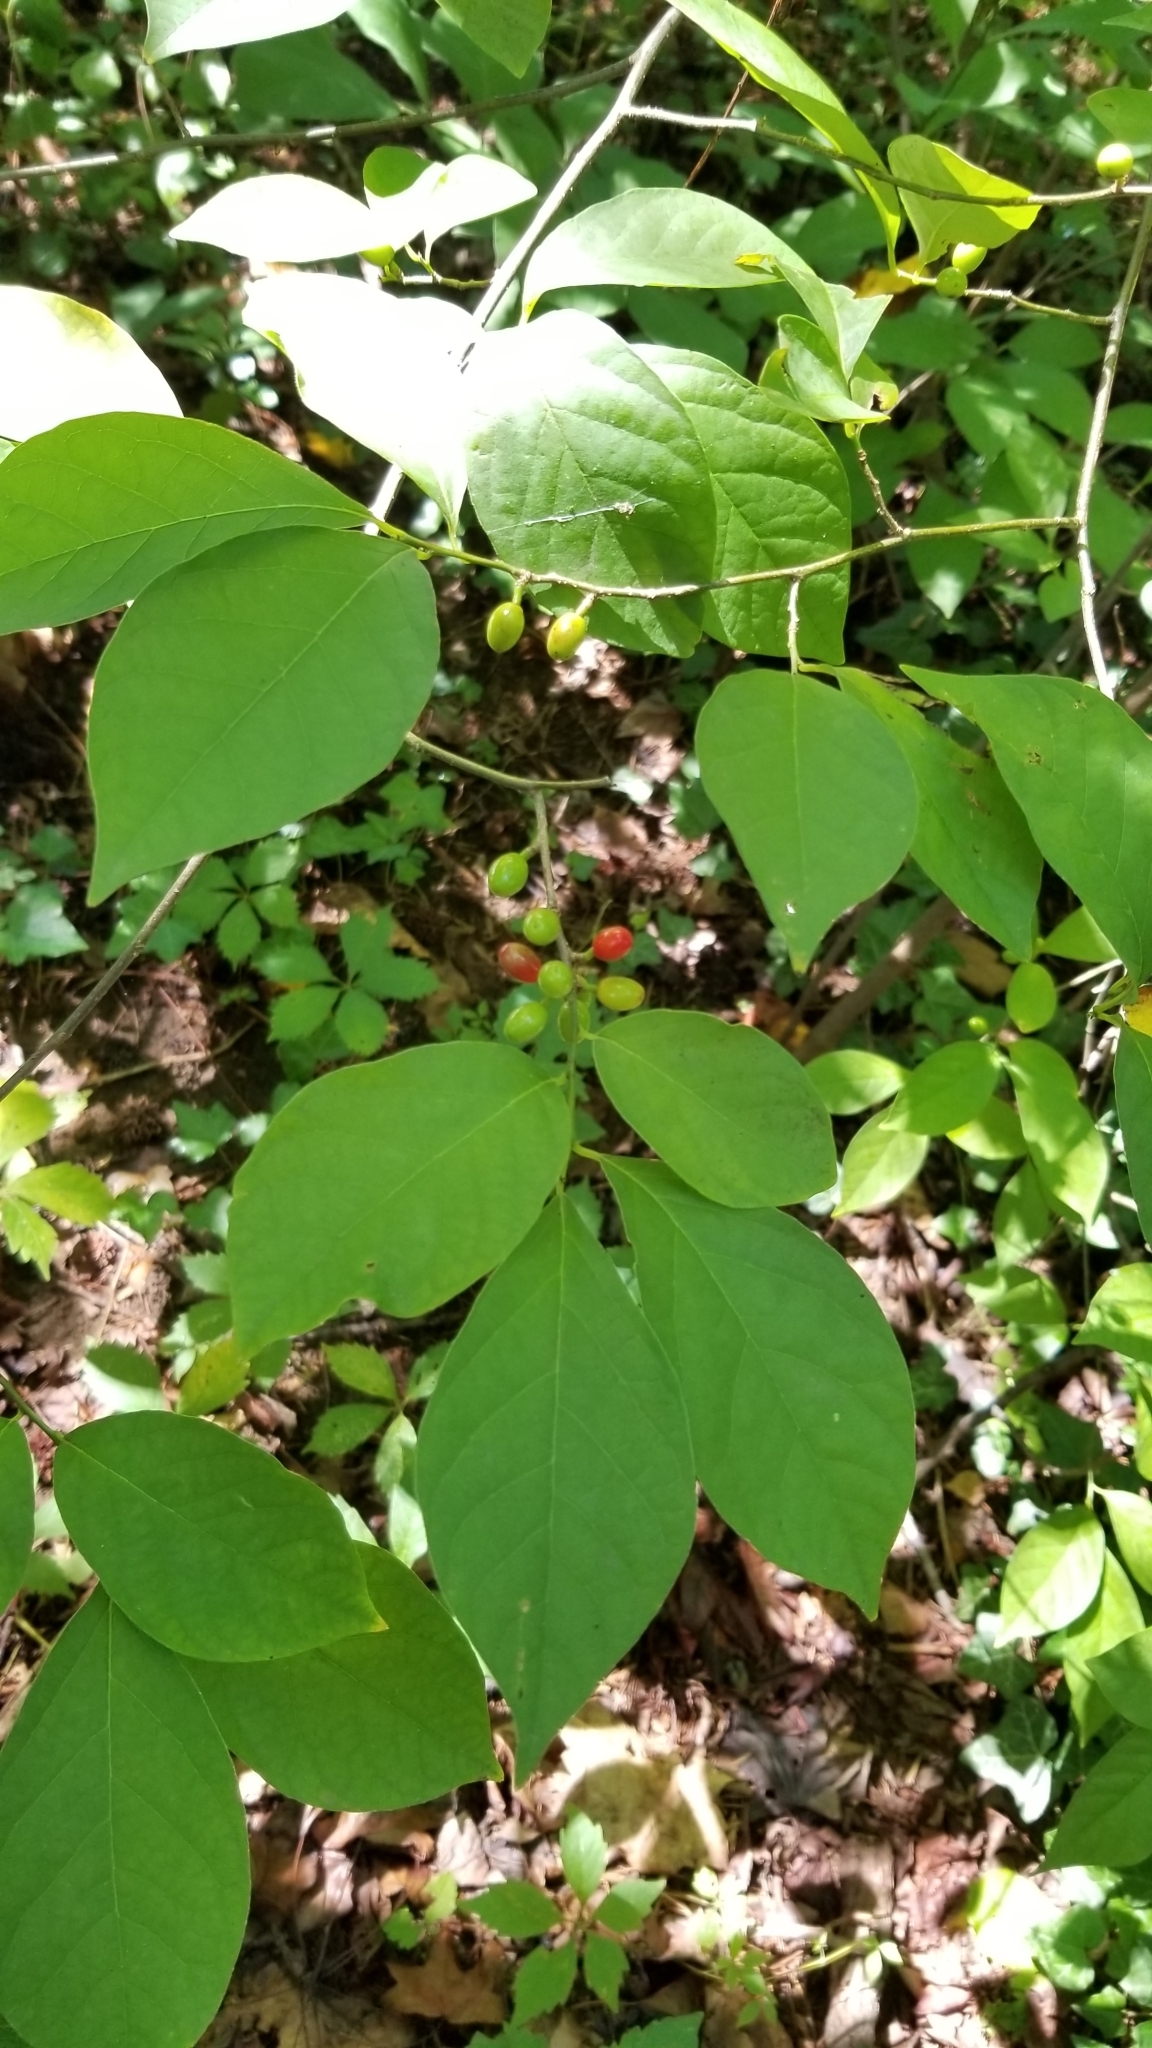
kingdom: Plantae
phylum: Tracheophyta
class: Magnoliopsida
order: Laurales
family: Lauraceae
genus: Lindera
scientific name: Lindera benzoin
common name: Spicebush
